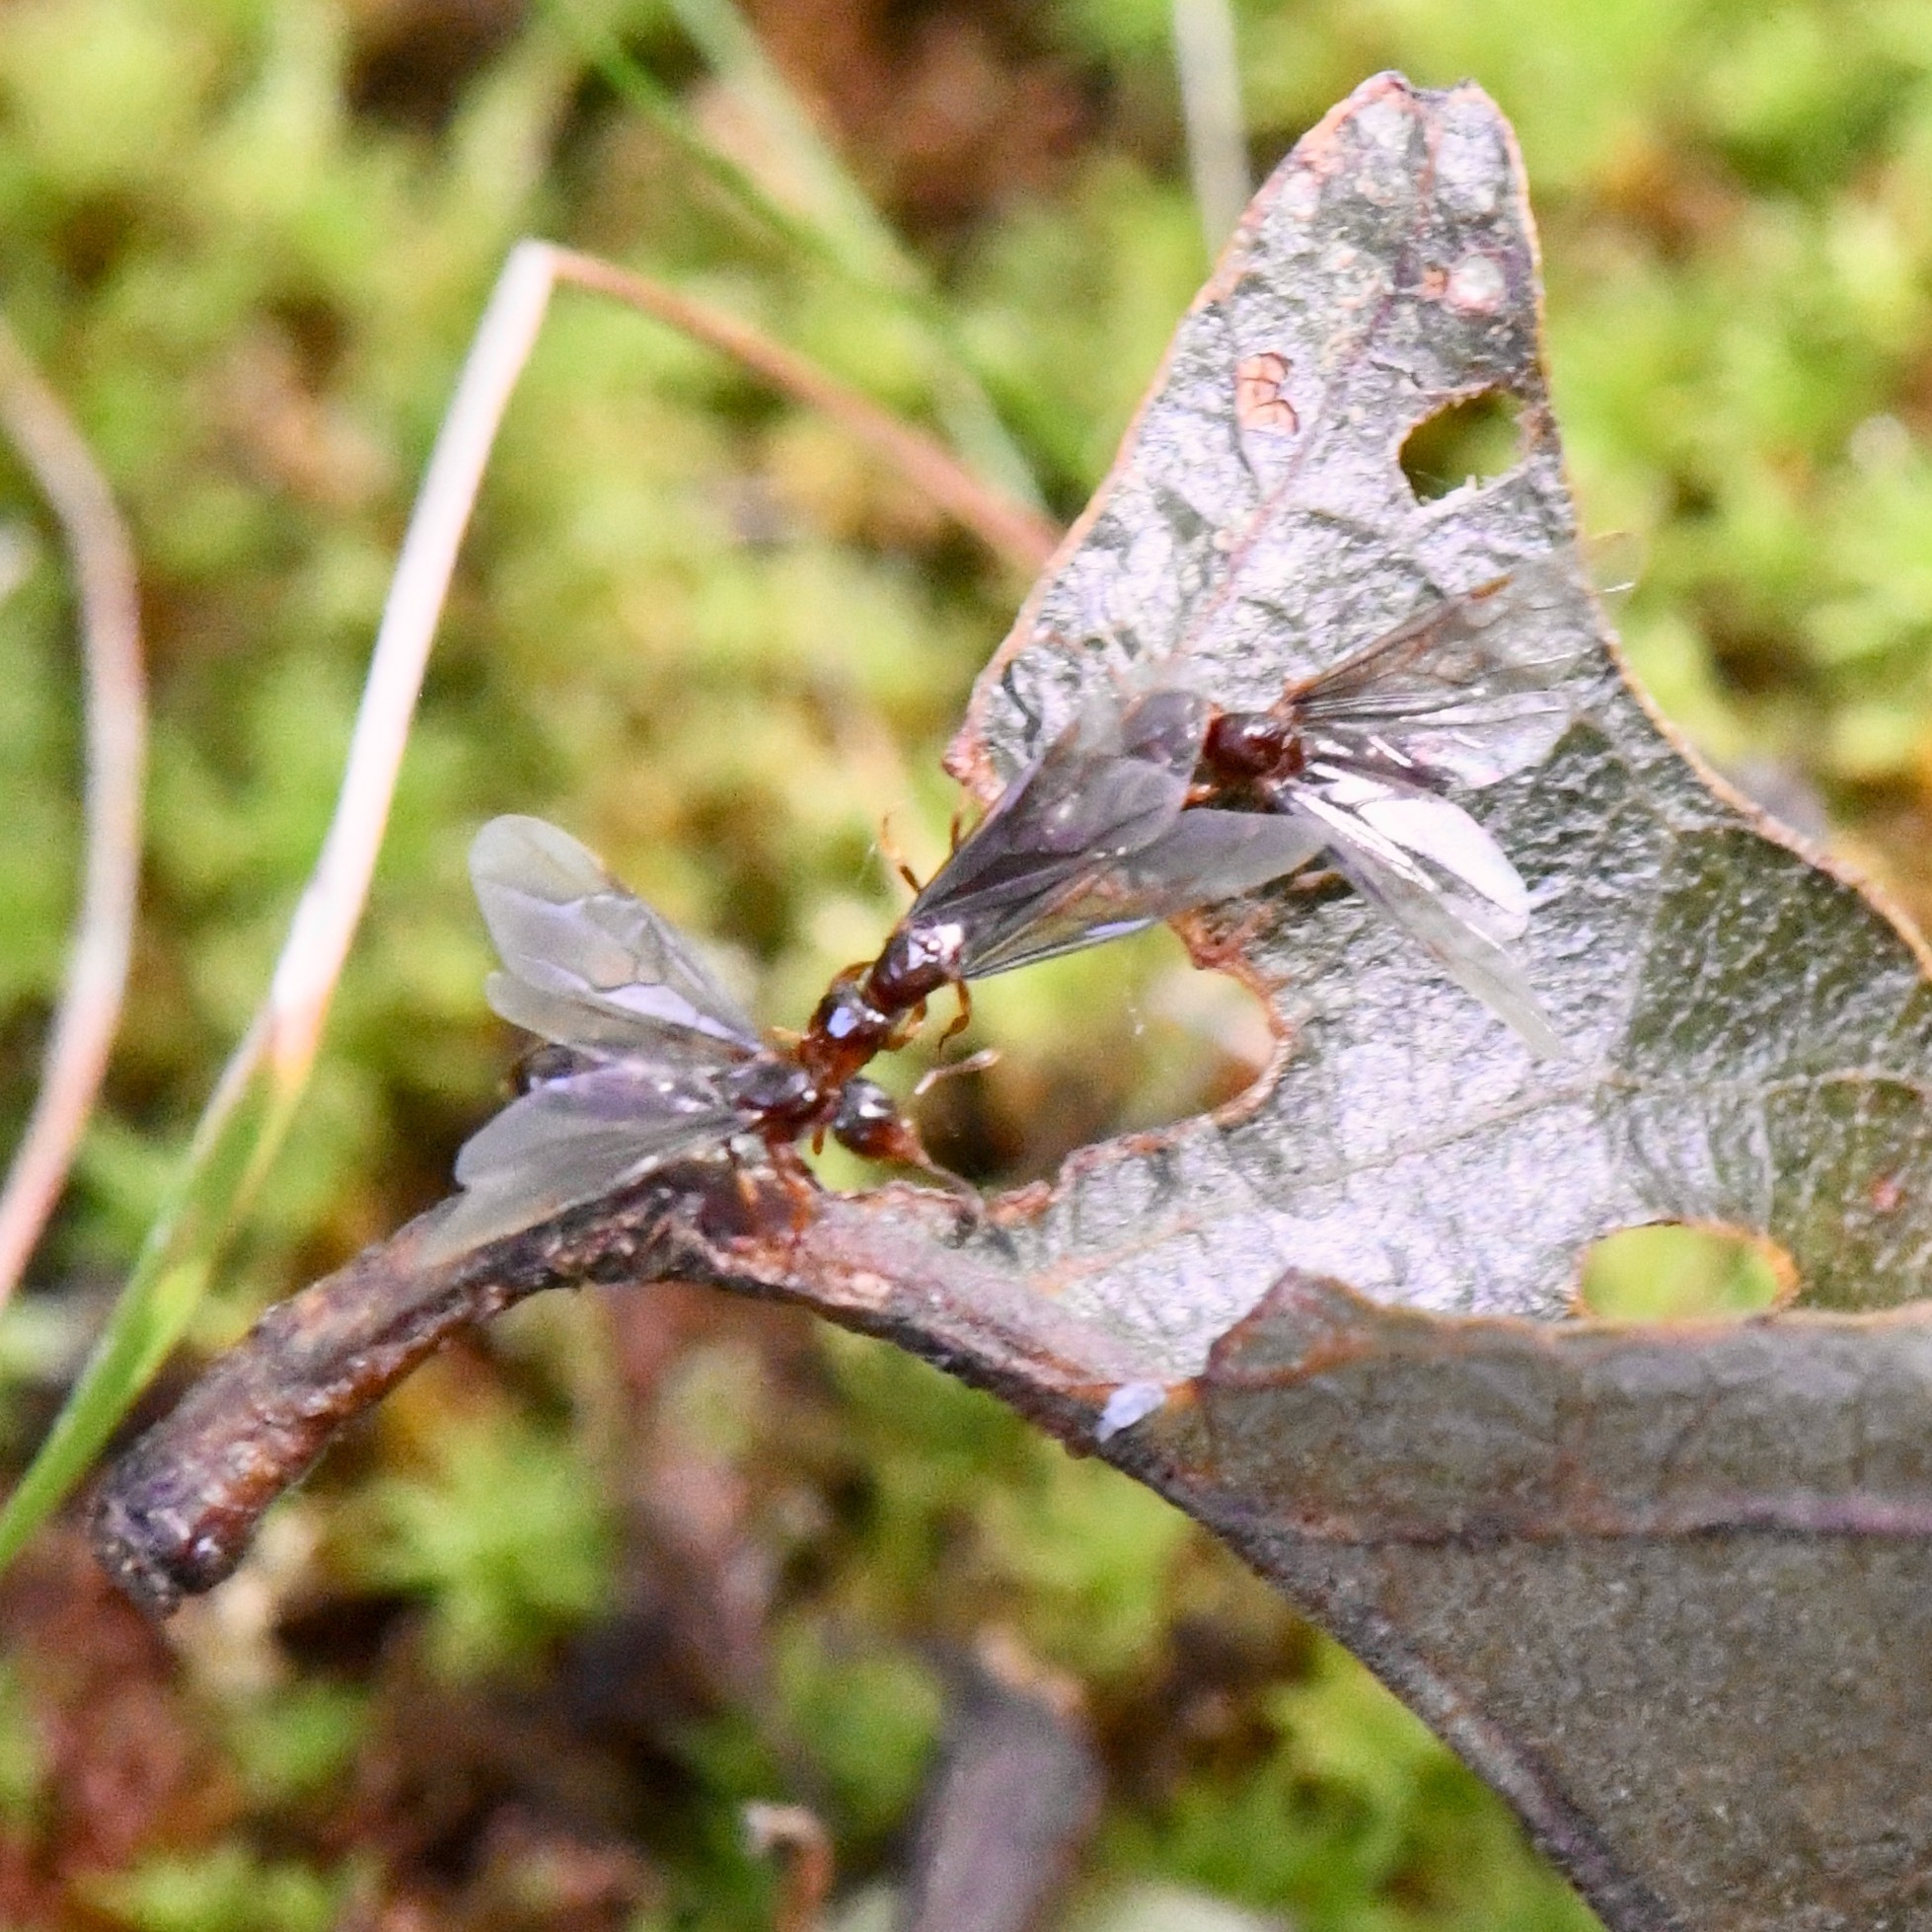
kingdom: Animalia
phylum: Arthropoda
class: Insecta
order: Hymenoptera
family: Formicidae
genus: Lasius
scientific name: Lasius claviger
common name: Common citronella ant
